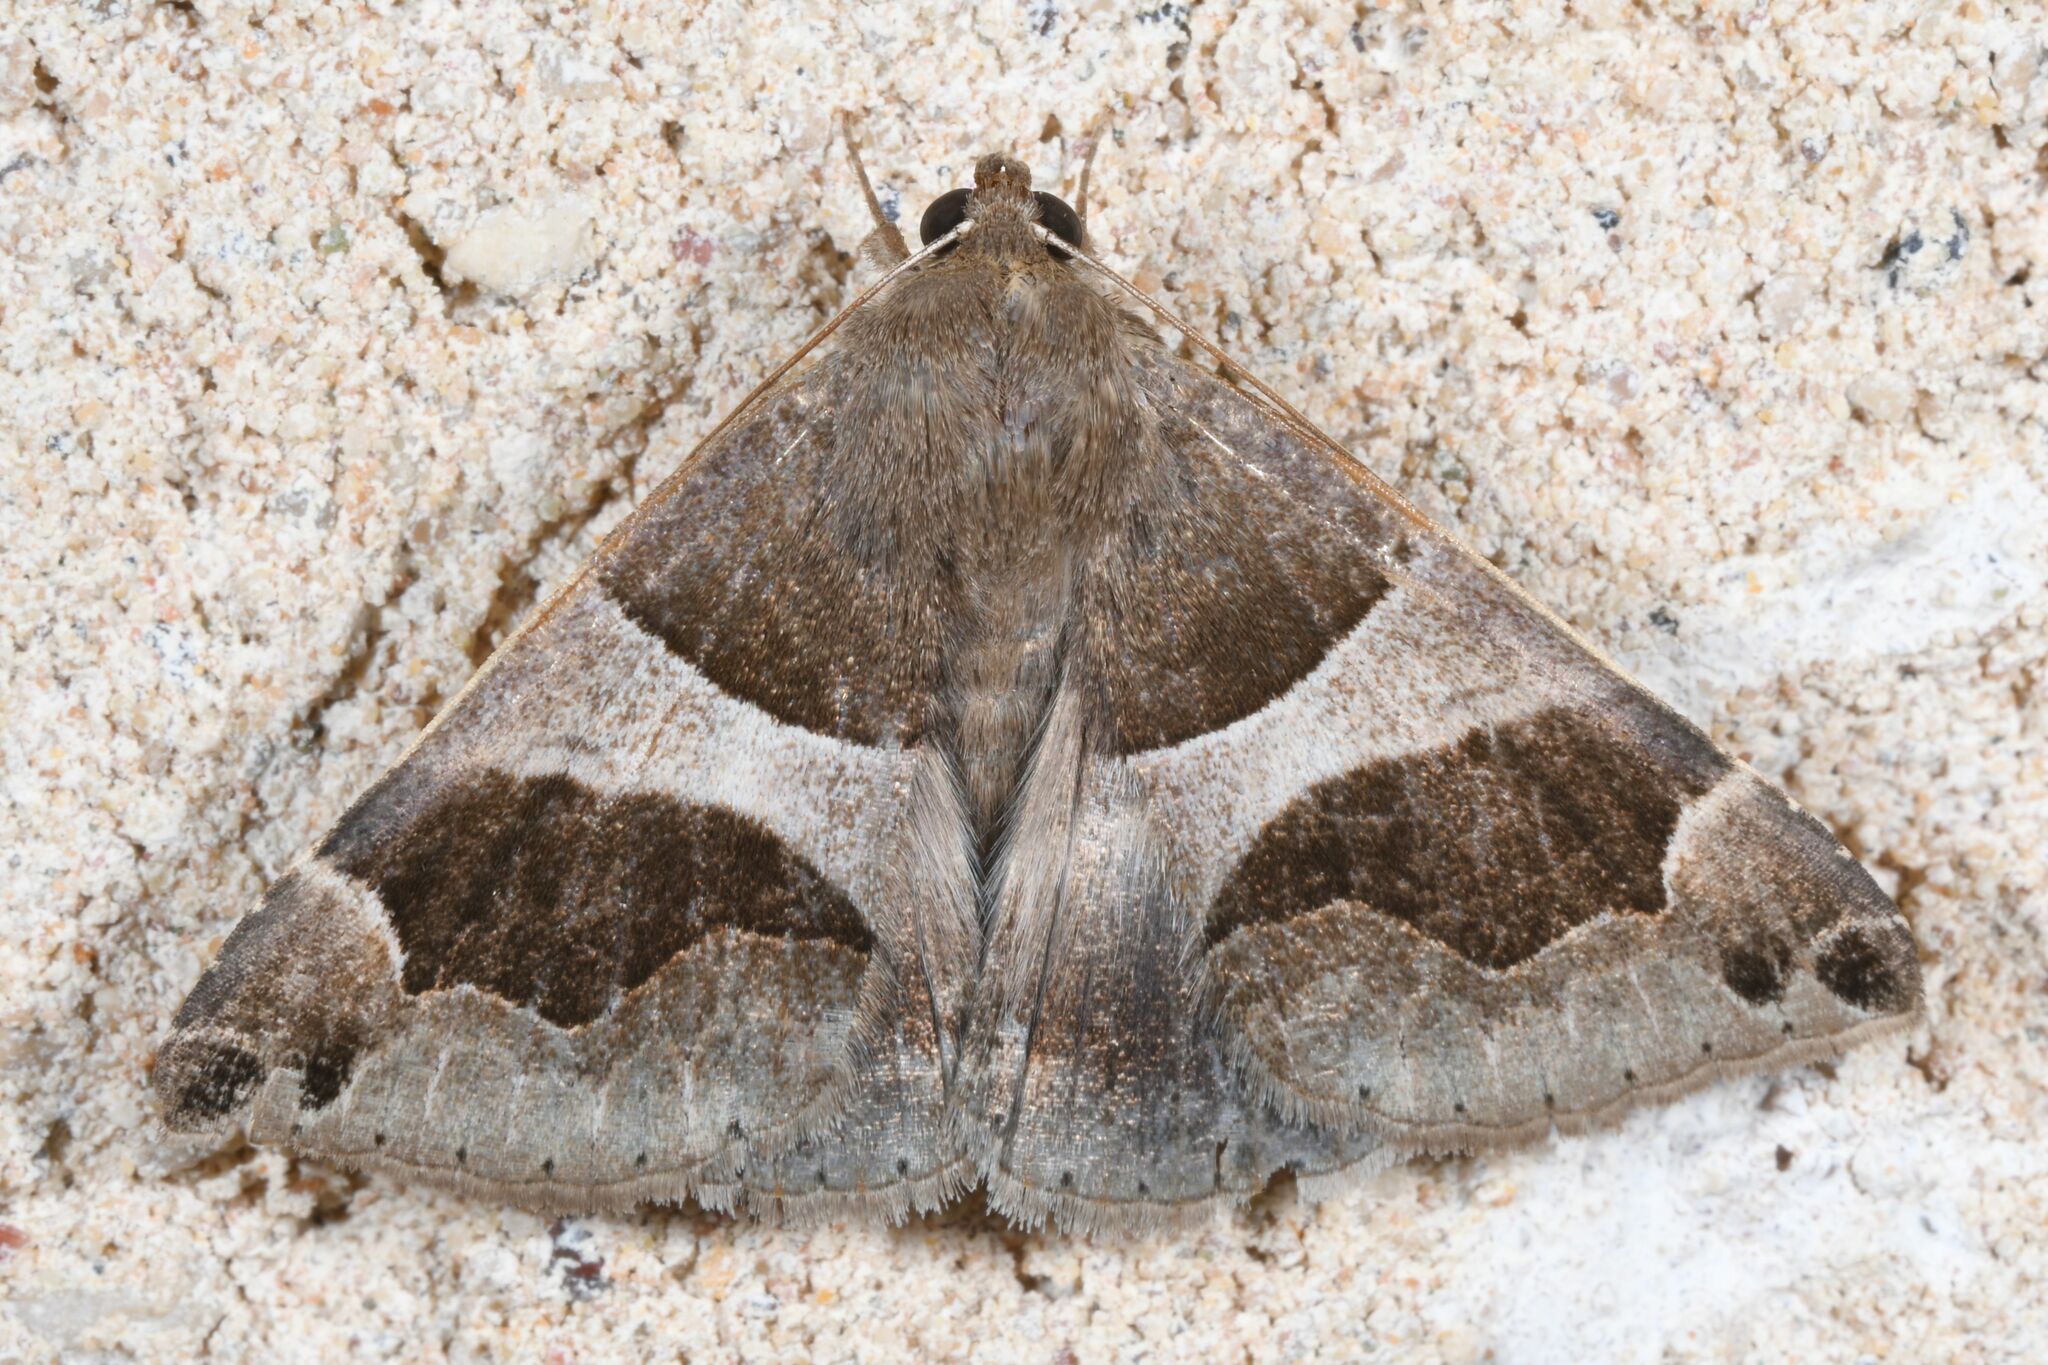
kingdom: Animalia
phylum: Arthropoda
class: Insecta
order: Lepidoptera
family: Erebidae
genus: Dysgonia
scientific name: Dysgonia algira
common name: Passenger
